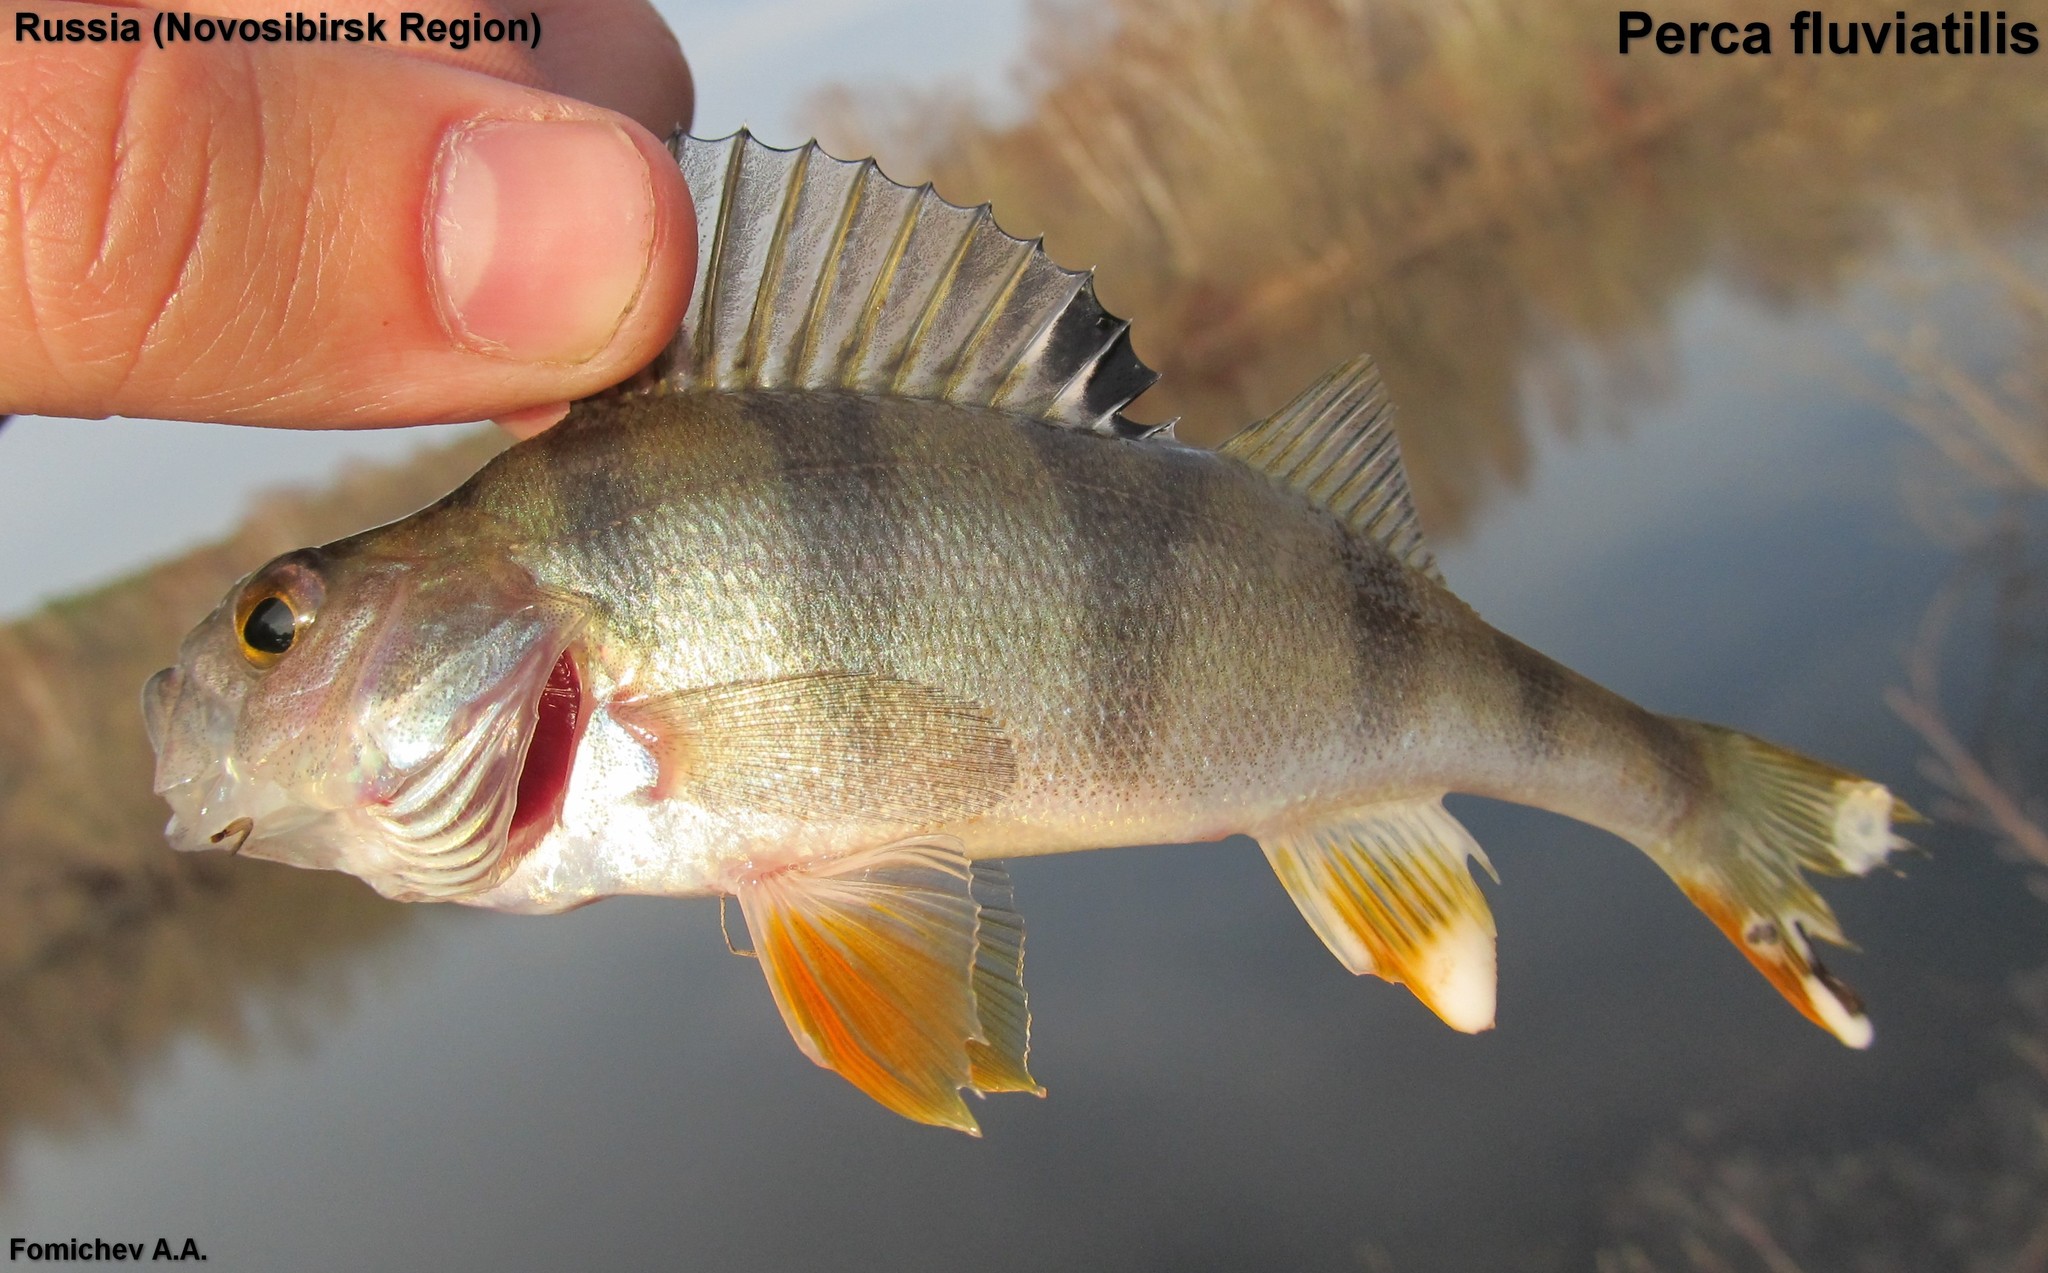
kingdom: Animalia
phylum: Chordata
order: Perciformes
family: Percidae
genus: Perca
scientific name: Perca fluviatilis
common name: Perch
